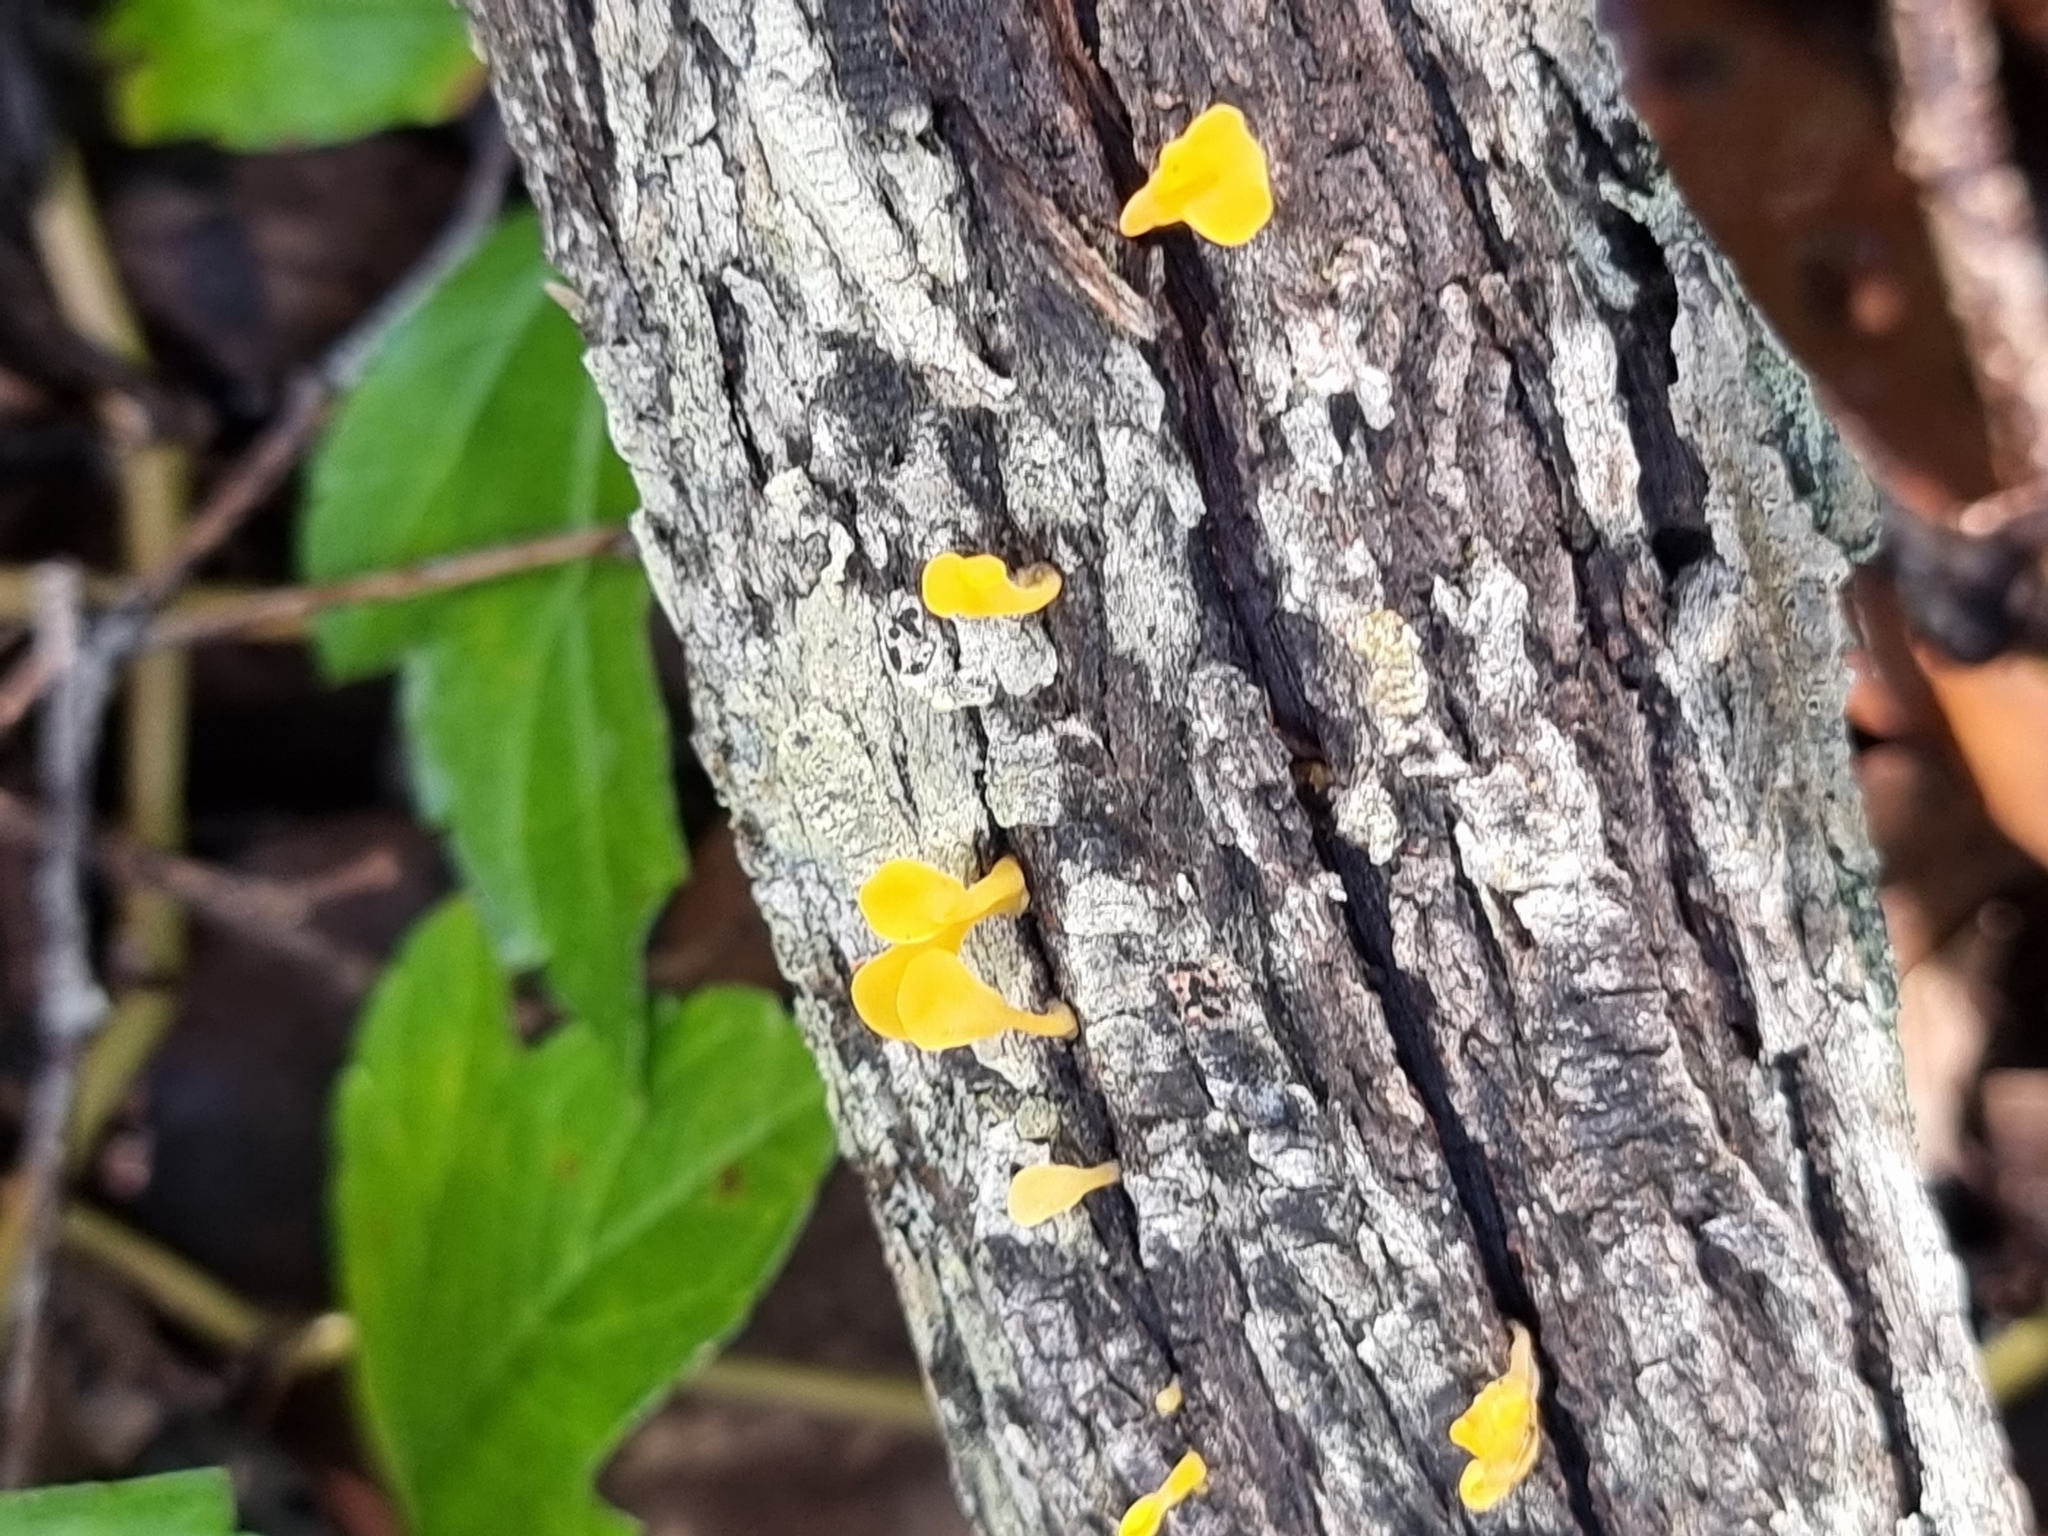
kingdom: Fungi
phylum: Basidiomycota
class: Dacrymycetes
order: Dacrymycetales
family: Dacrymycetaceae
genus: Dacrymyces
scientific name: Dacrymyces spathularius
